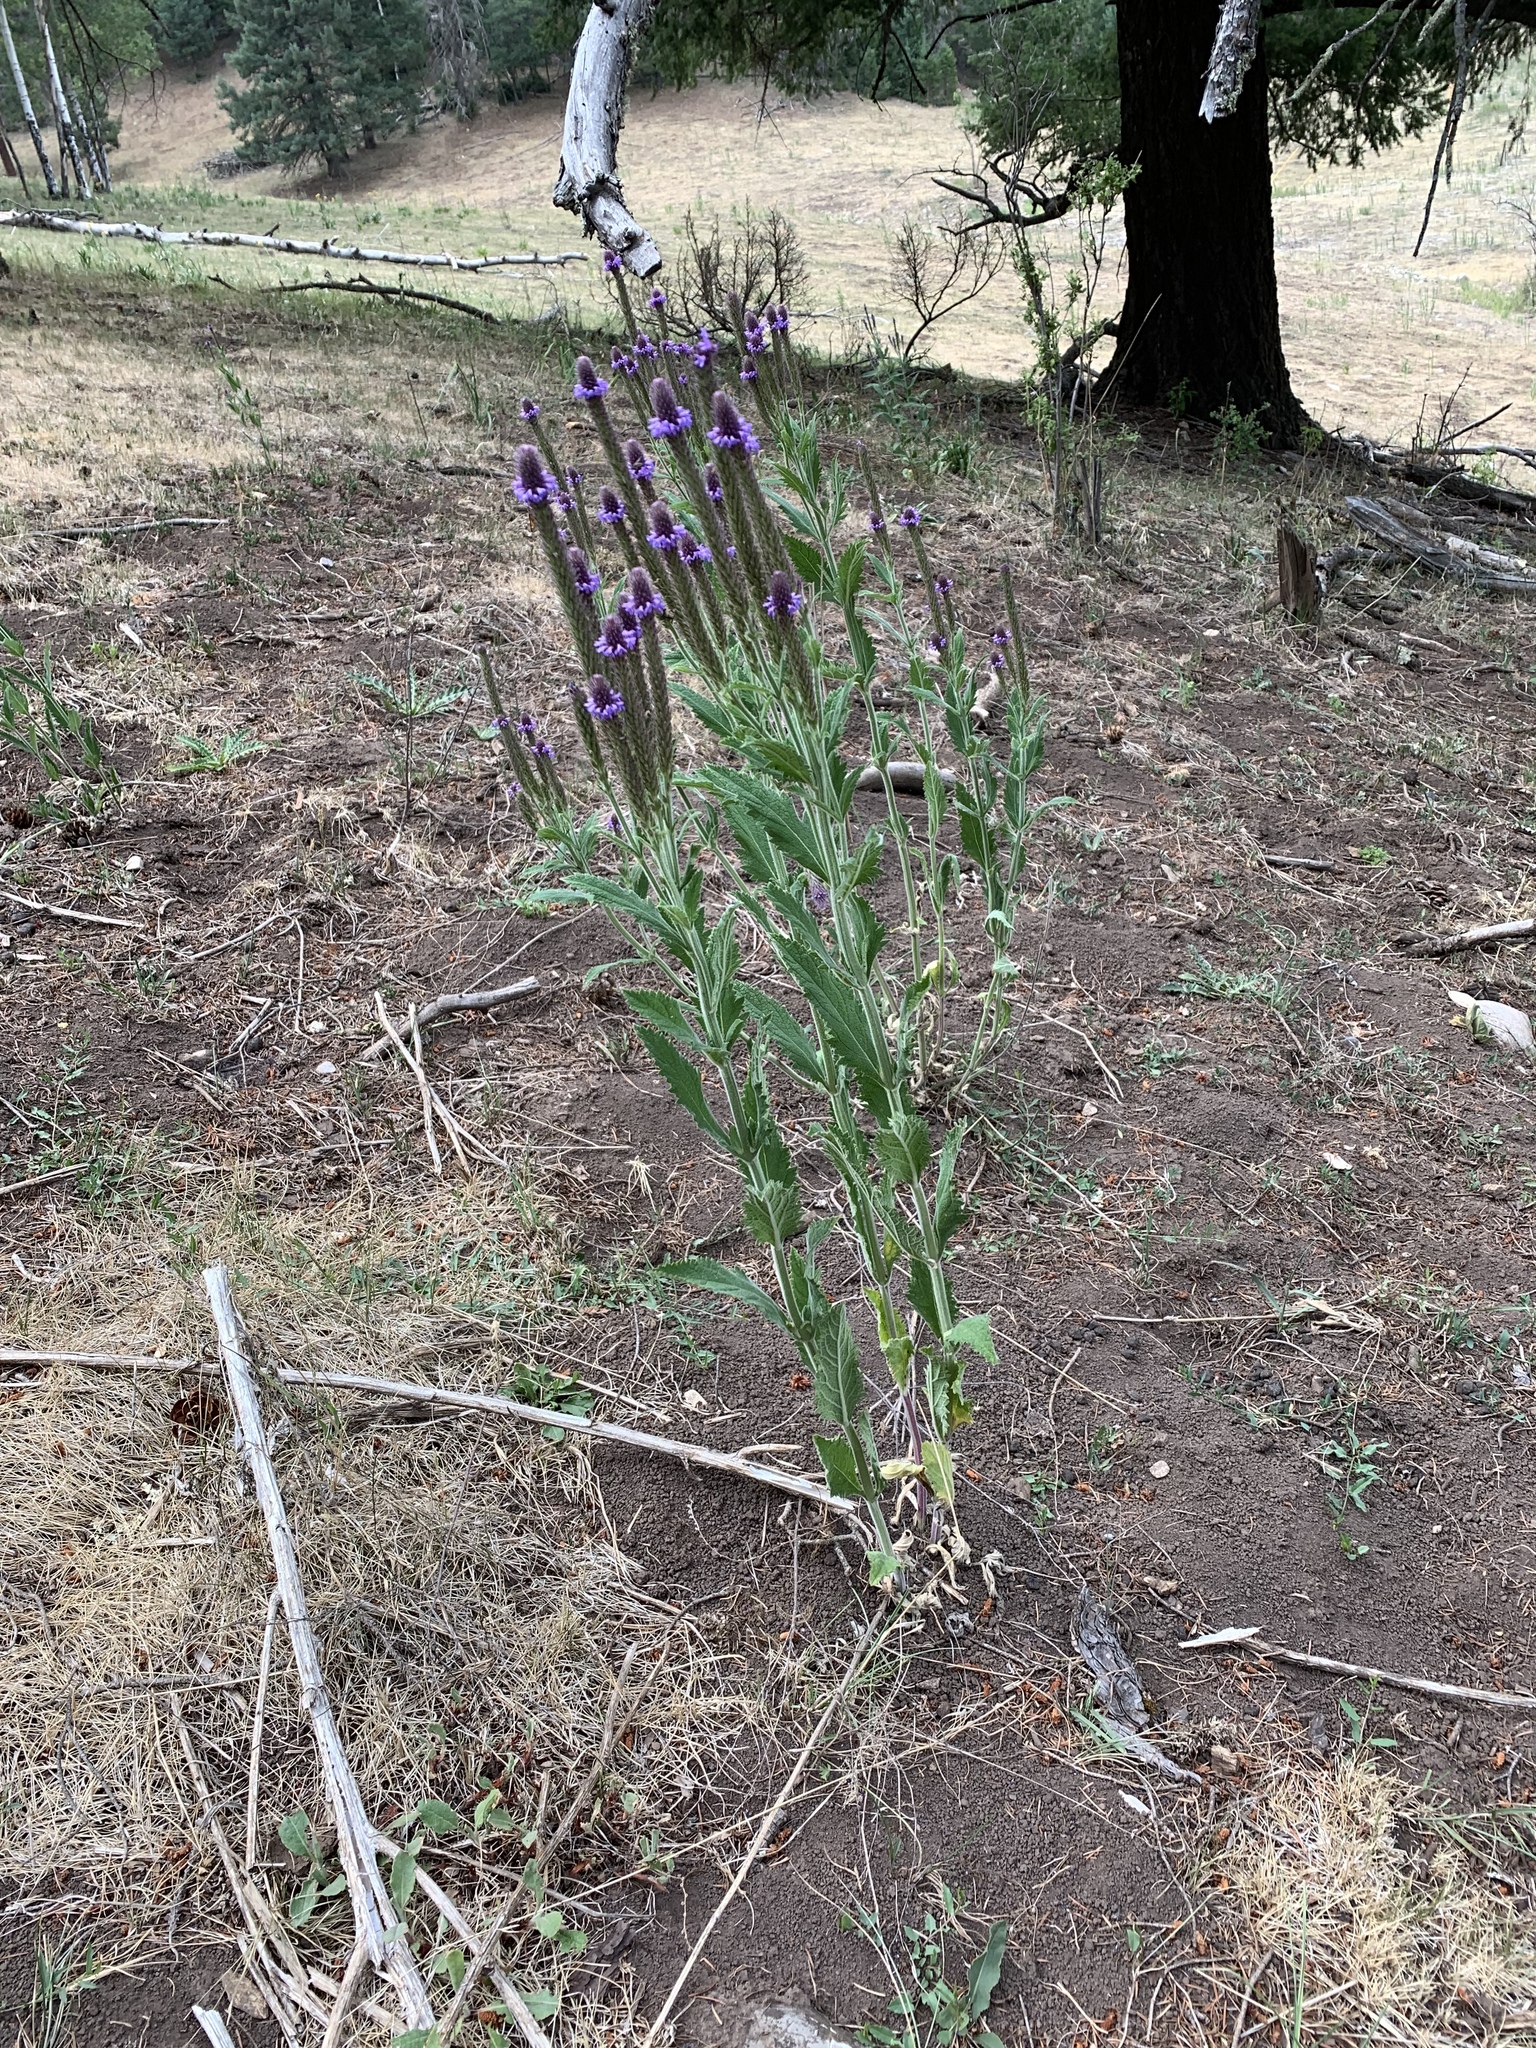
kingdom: Plantae
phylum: Tracheophyta
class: Magnoliopsida
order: Lamiales
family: Verbenaceae
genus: Verbena
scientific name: Verbena macdougalii
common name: New mexico vervain
